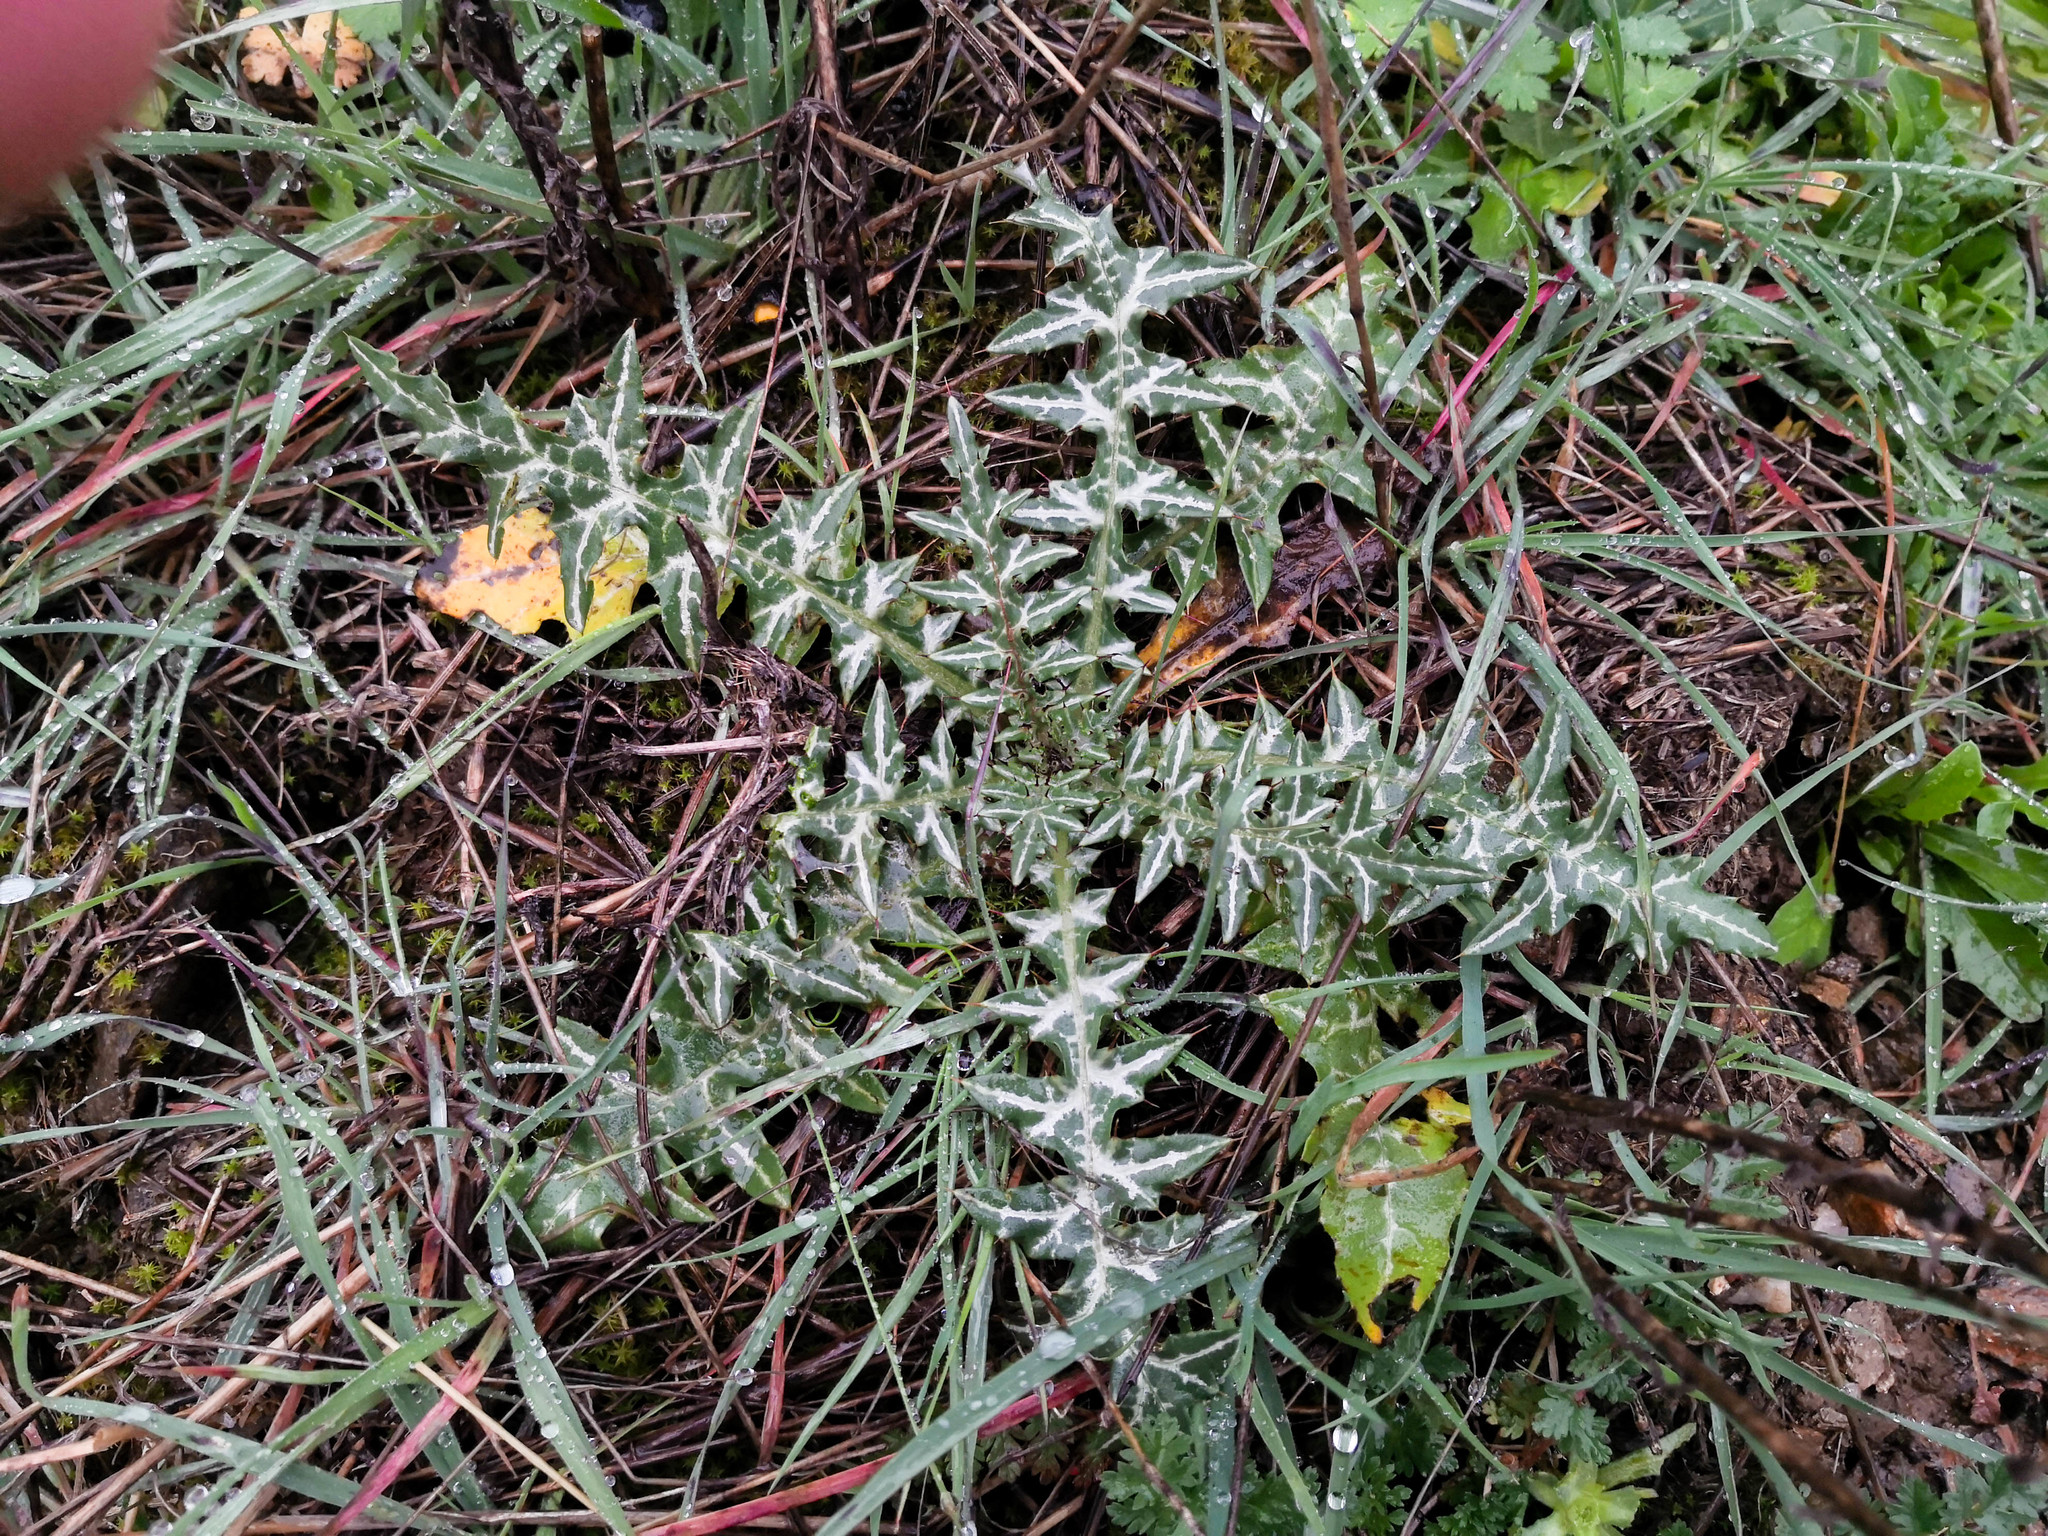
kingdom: Plantae
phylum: Tracheophyta
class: Magnoliopsida
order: Asterales
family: Asteraceae
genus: Galactites
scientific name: Galactites tomentosa
